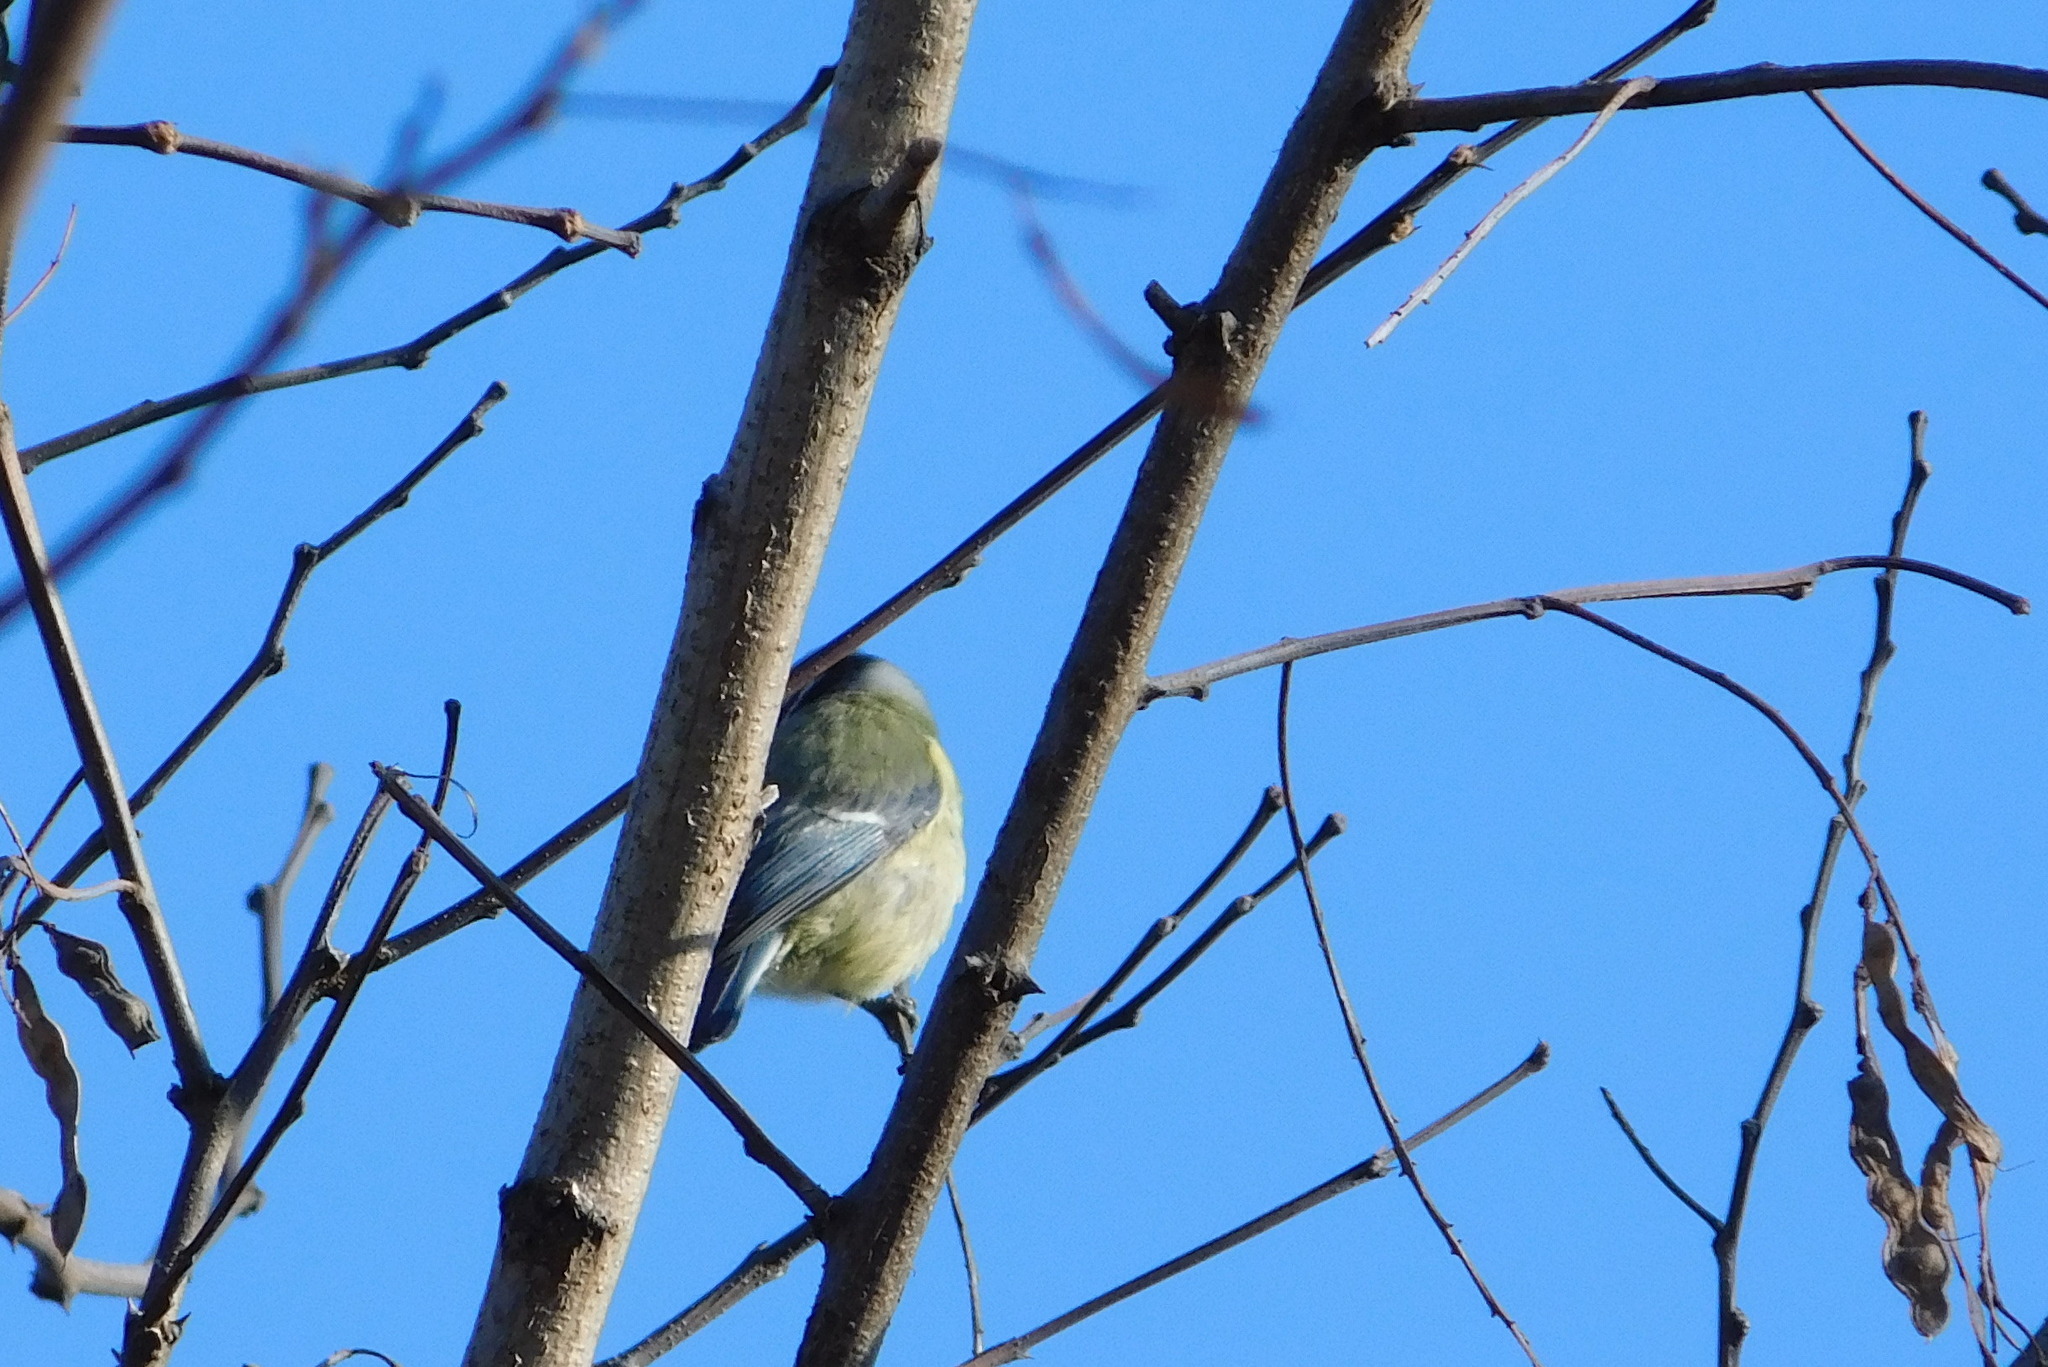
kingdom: Animalia
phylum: Chordata
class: Aves
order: Passeriformes
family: Paridae
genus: Cyanistes
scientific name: Cyanistes caeruleus
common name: Eurasian blue tit
